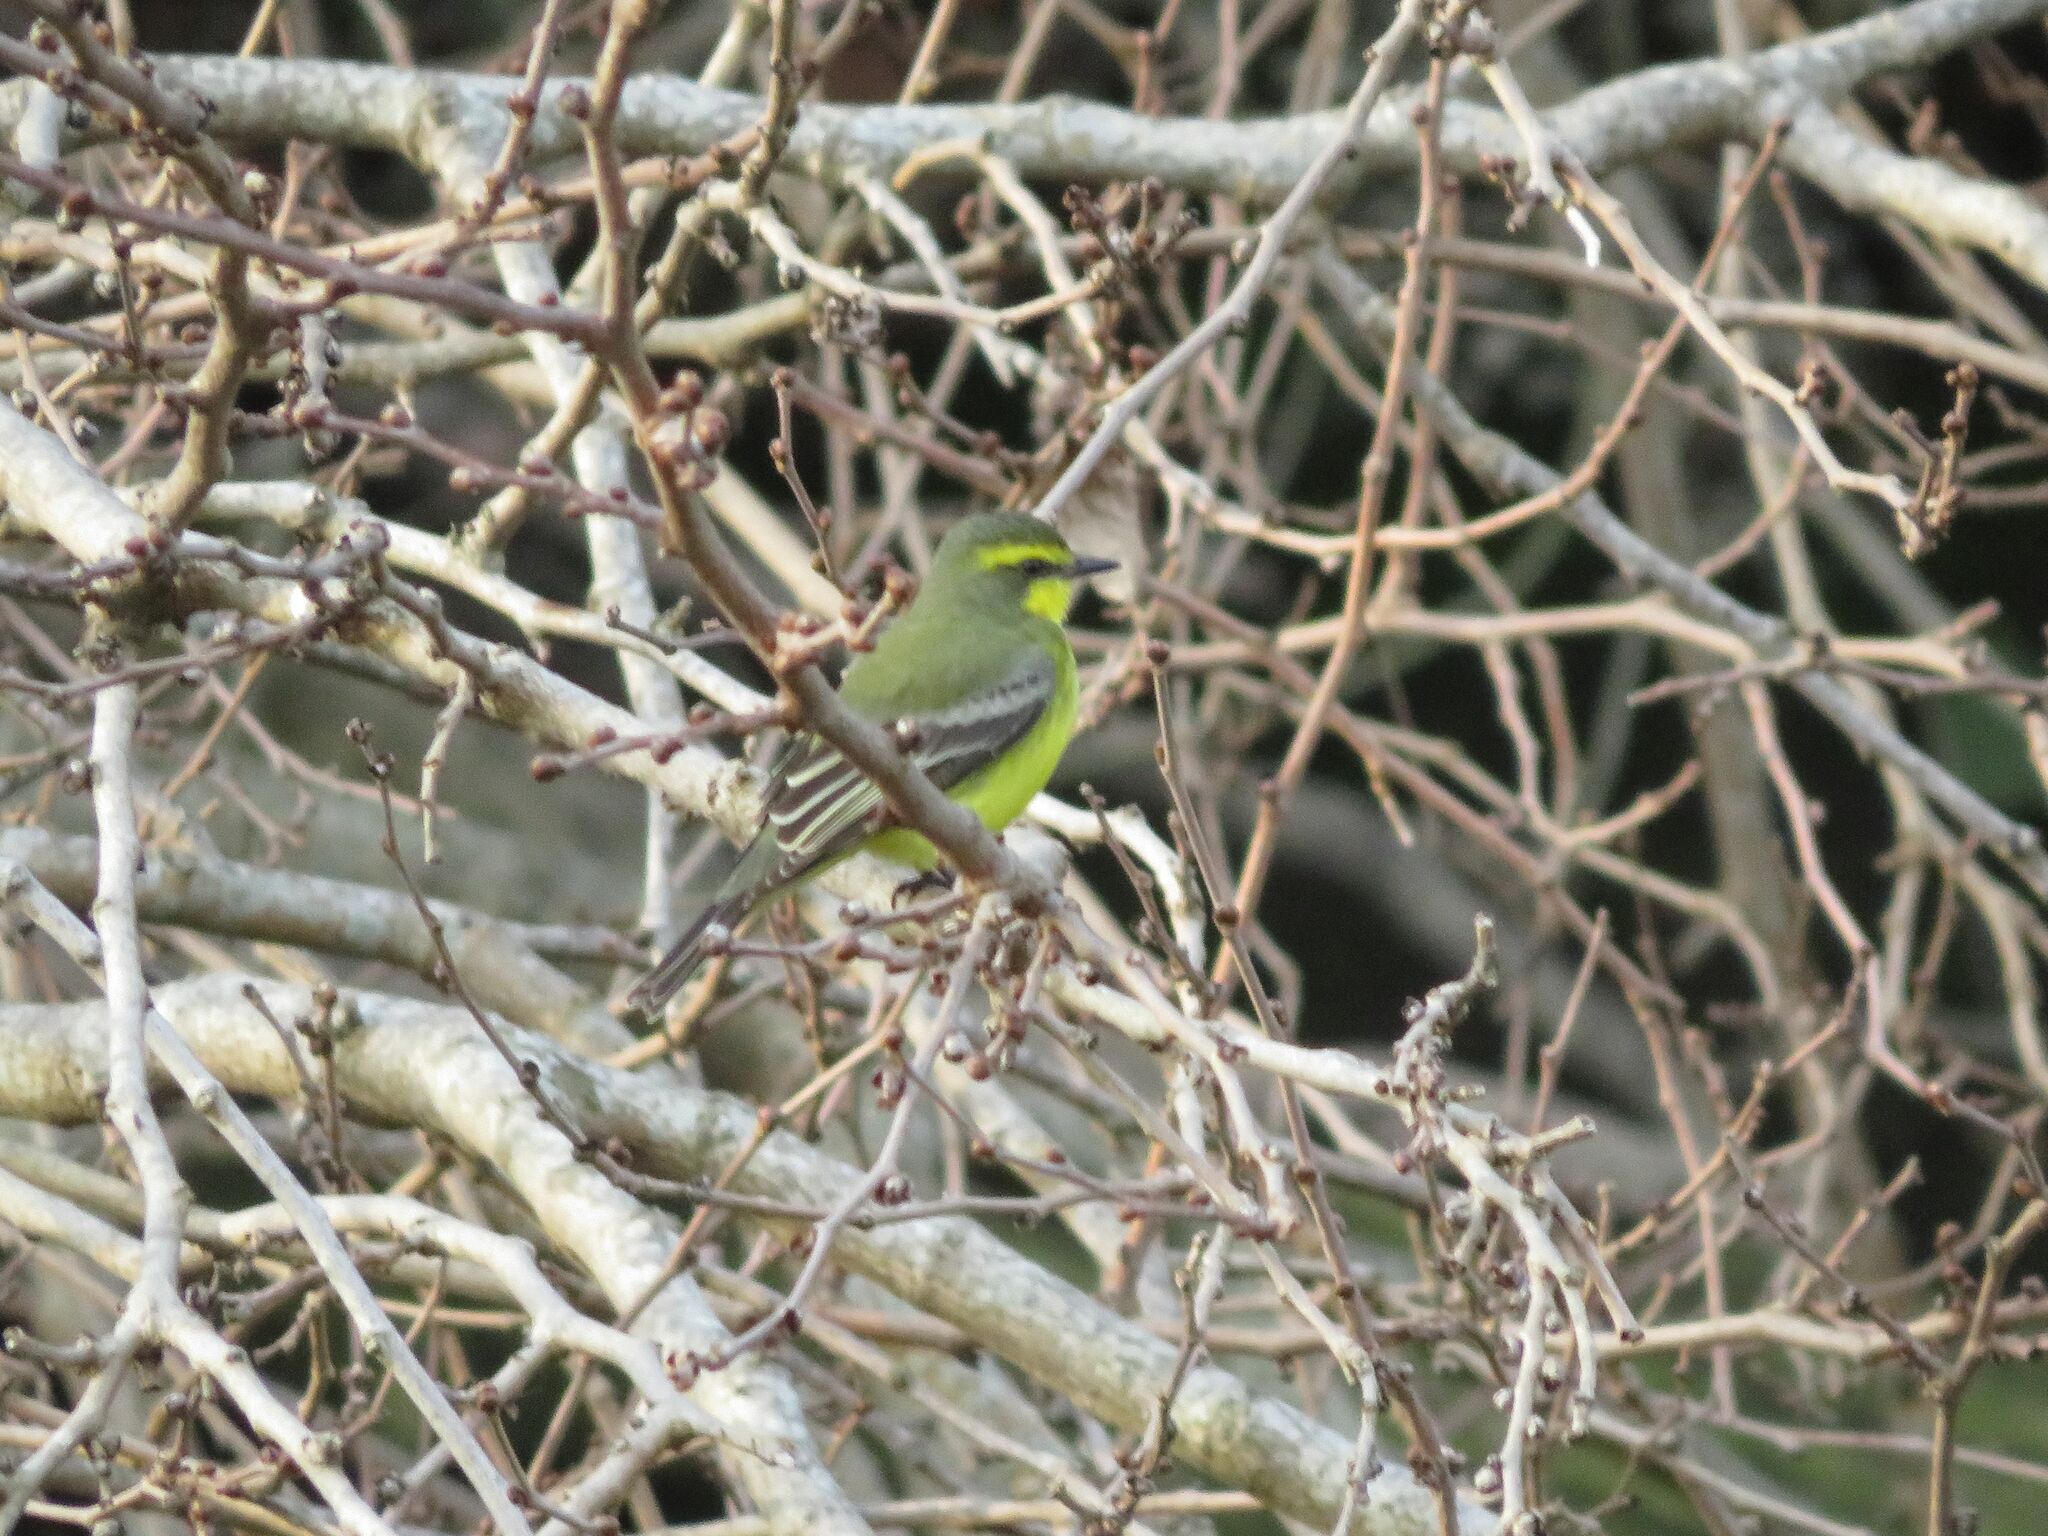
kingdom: Animalia
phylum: Chordata
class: Aves
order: Passeriformes
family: Tyrannidae
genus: Satrapa
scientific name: Satrapa icterophrys
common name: Yellow-browed tyrant
